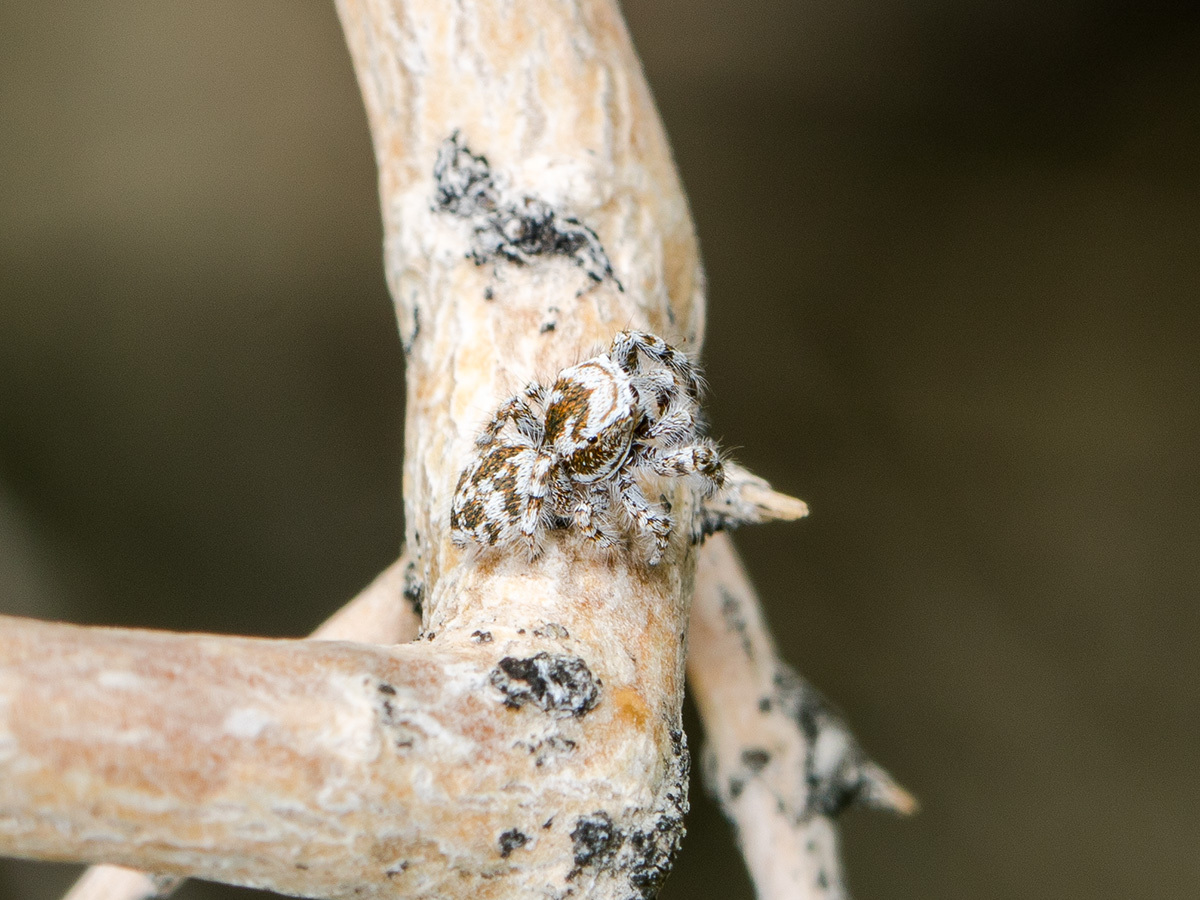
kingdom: Animalia
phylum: Arthropoda
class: Arachnida
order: Araneae
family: Salticidae
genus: Pseudomogrus
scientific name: Pseudomogrus dalaensis
